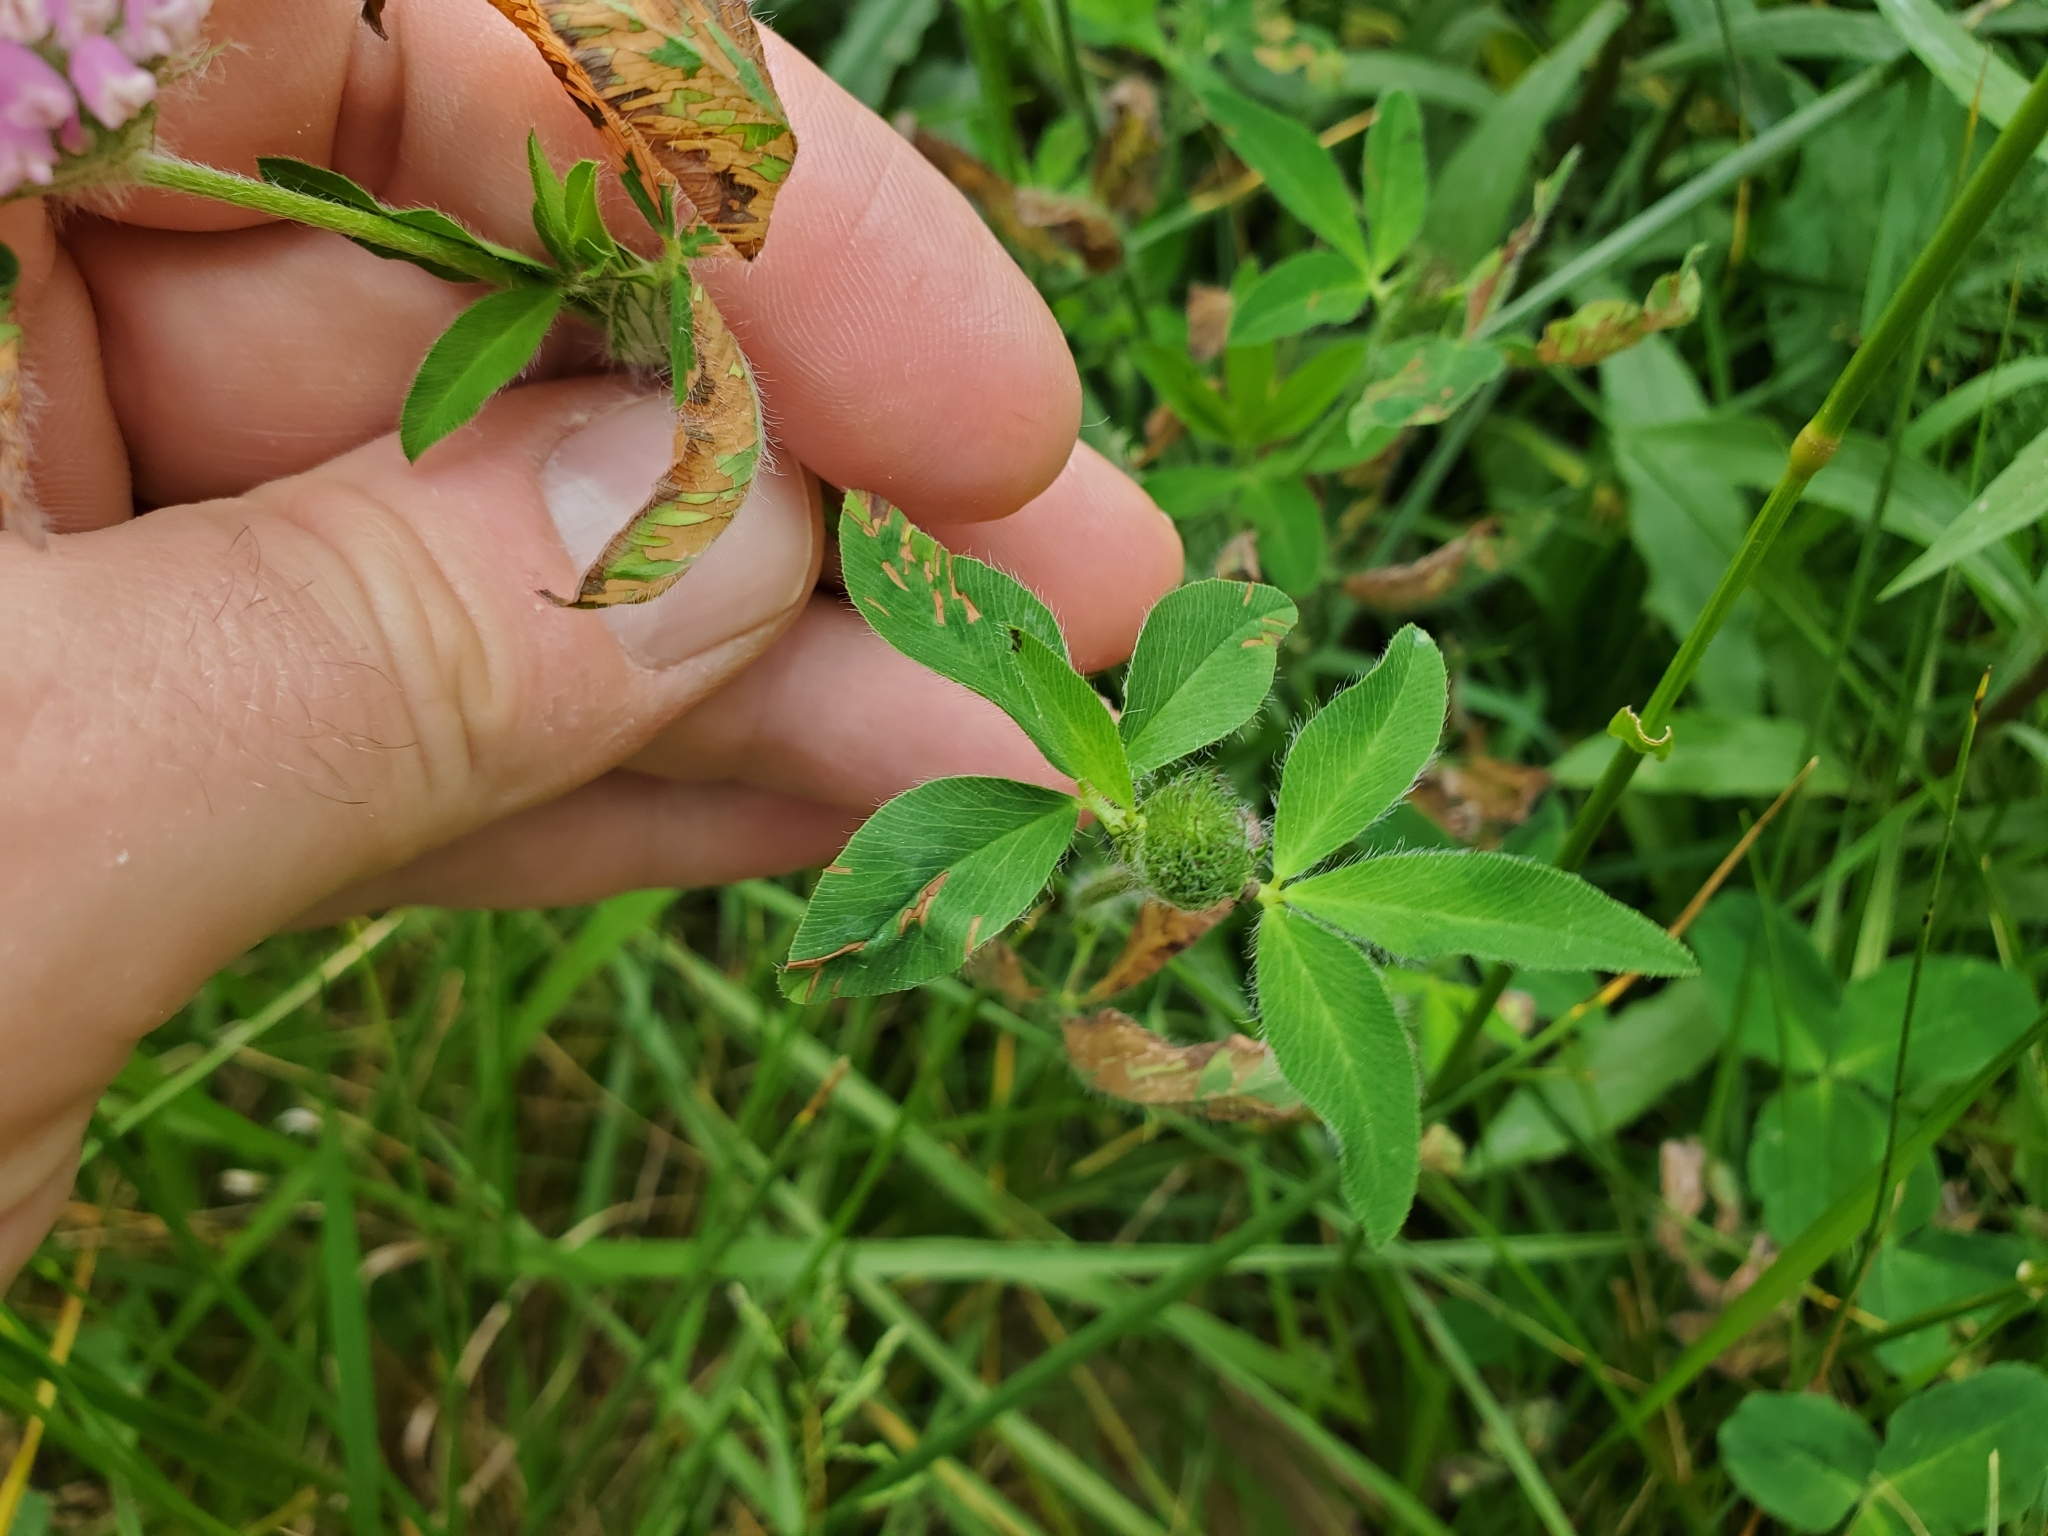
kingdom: Plantae
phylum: Tracheophyta
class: Magnoliopsida
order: Fabales
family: Fabaceae
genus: Trifolium
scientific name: Trifolium pratense
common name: Red clover
